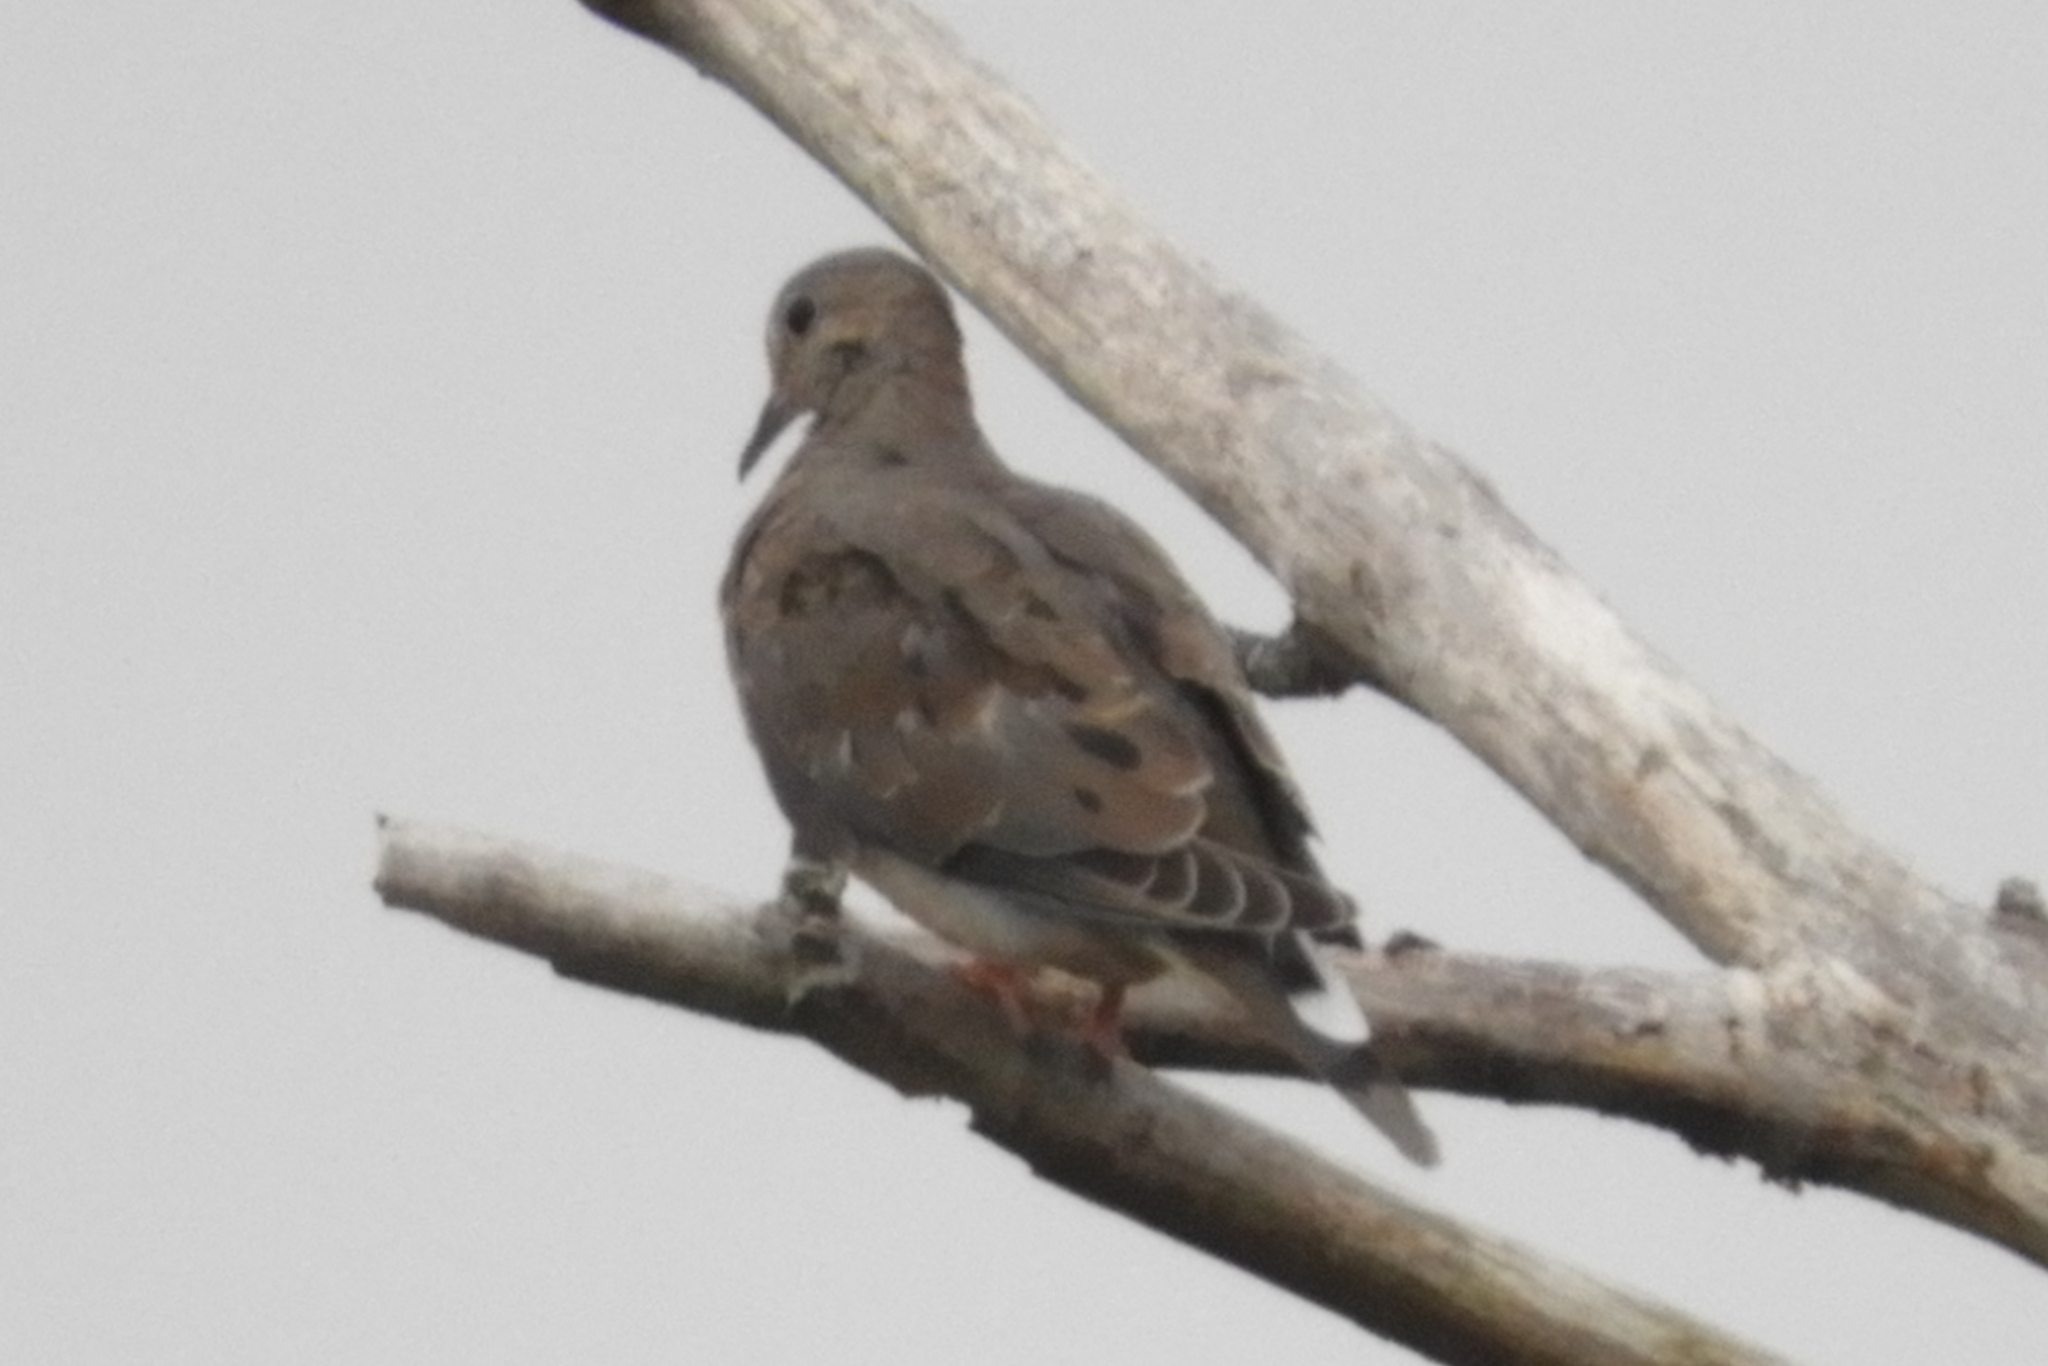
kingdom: Animalia
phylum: Chordata
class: Aves
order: Columbiformes
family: Columbidae
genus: Zenaida
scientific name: Zenaida macroura
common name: Mourning dove
